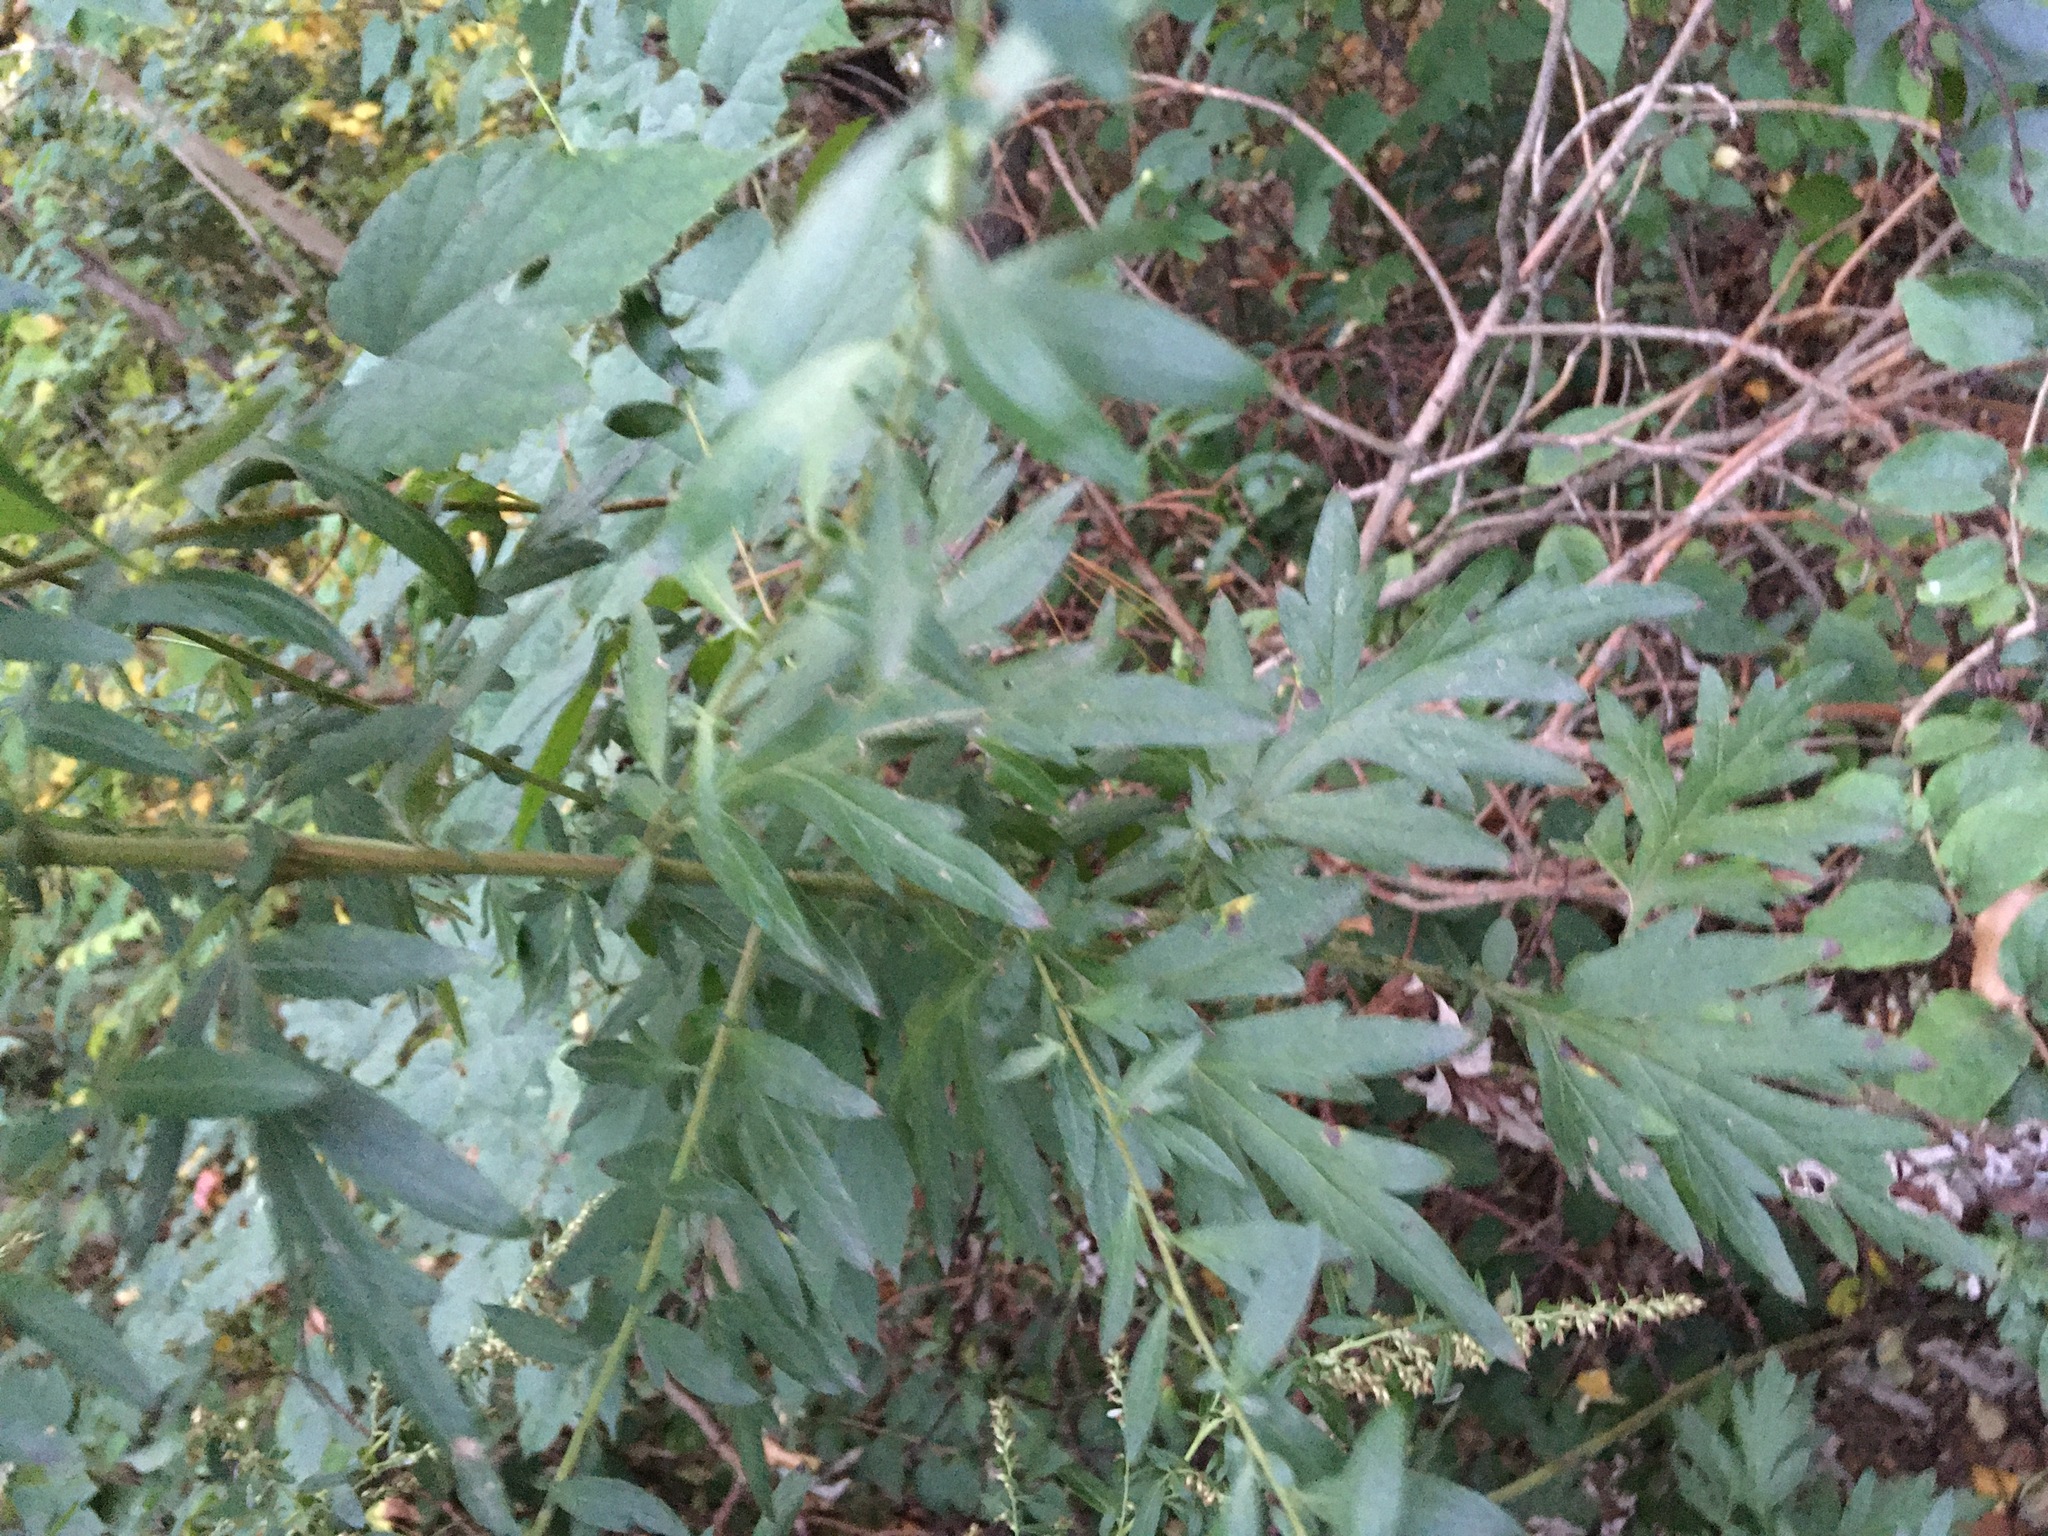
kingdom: Plantae
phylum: Tracheophyta
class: Magnoliopsida
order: Asterales
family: Asteraceae
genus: Artemisia
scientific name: Artemisia vulgaris
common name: Mugwort
